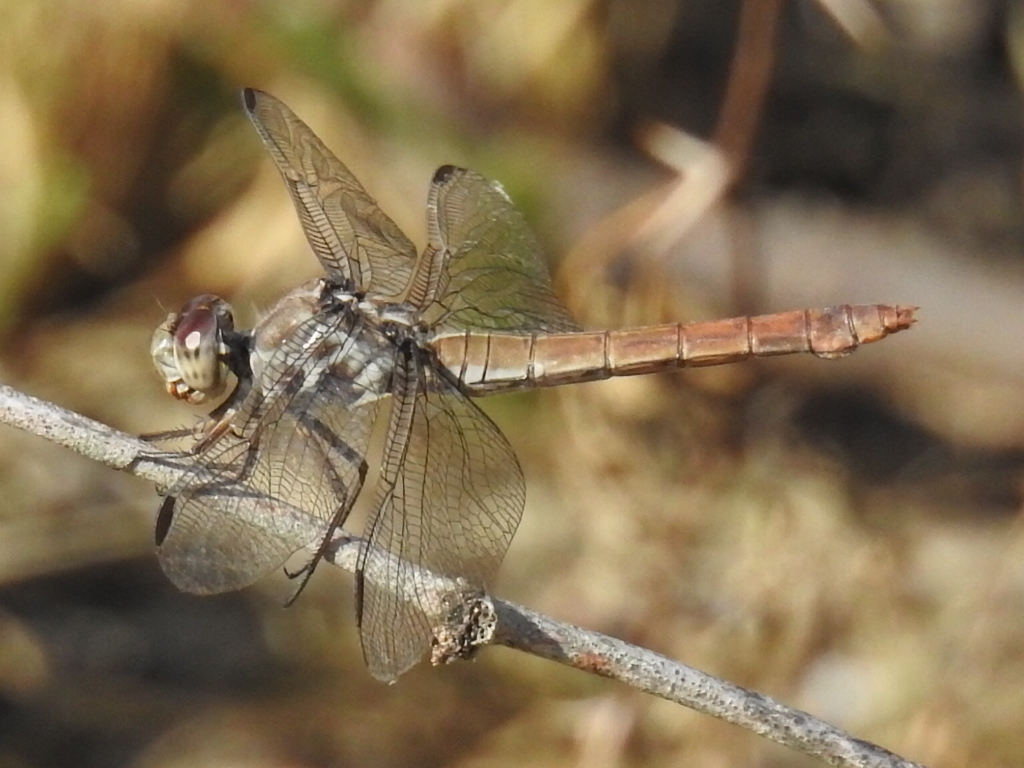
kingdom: Animalia
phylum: Arthropoda
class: Insecta
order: Odonata
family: Libellulidae
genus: Orthemis
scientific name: Orthemis ferruginea
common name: Roseate skimmer
